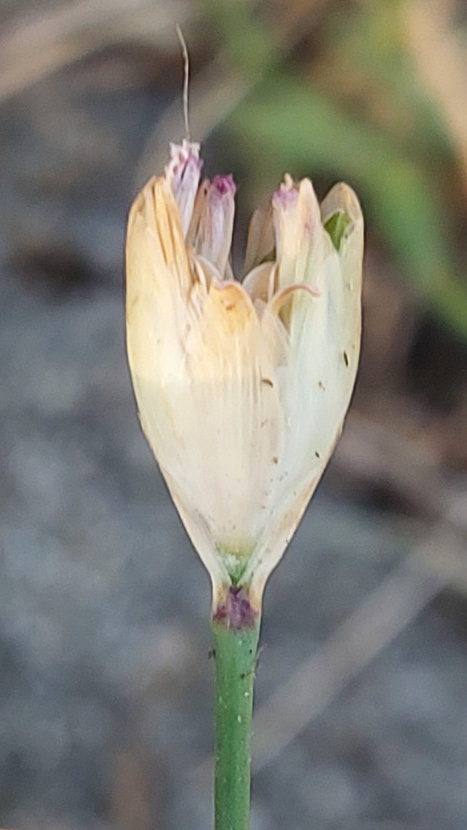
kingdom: Plantae
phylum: Tracheophyta
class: Magnoliopsida
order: Caryophyllales
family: Caryophyllaceae
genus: Petrorhagia
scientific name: Petrorhagia prolifera
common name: Proliferous pink
